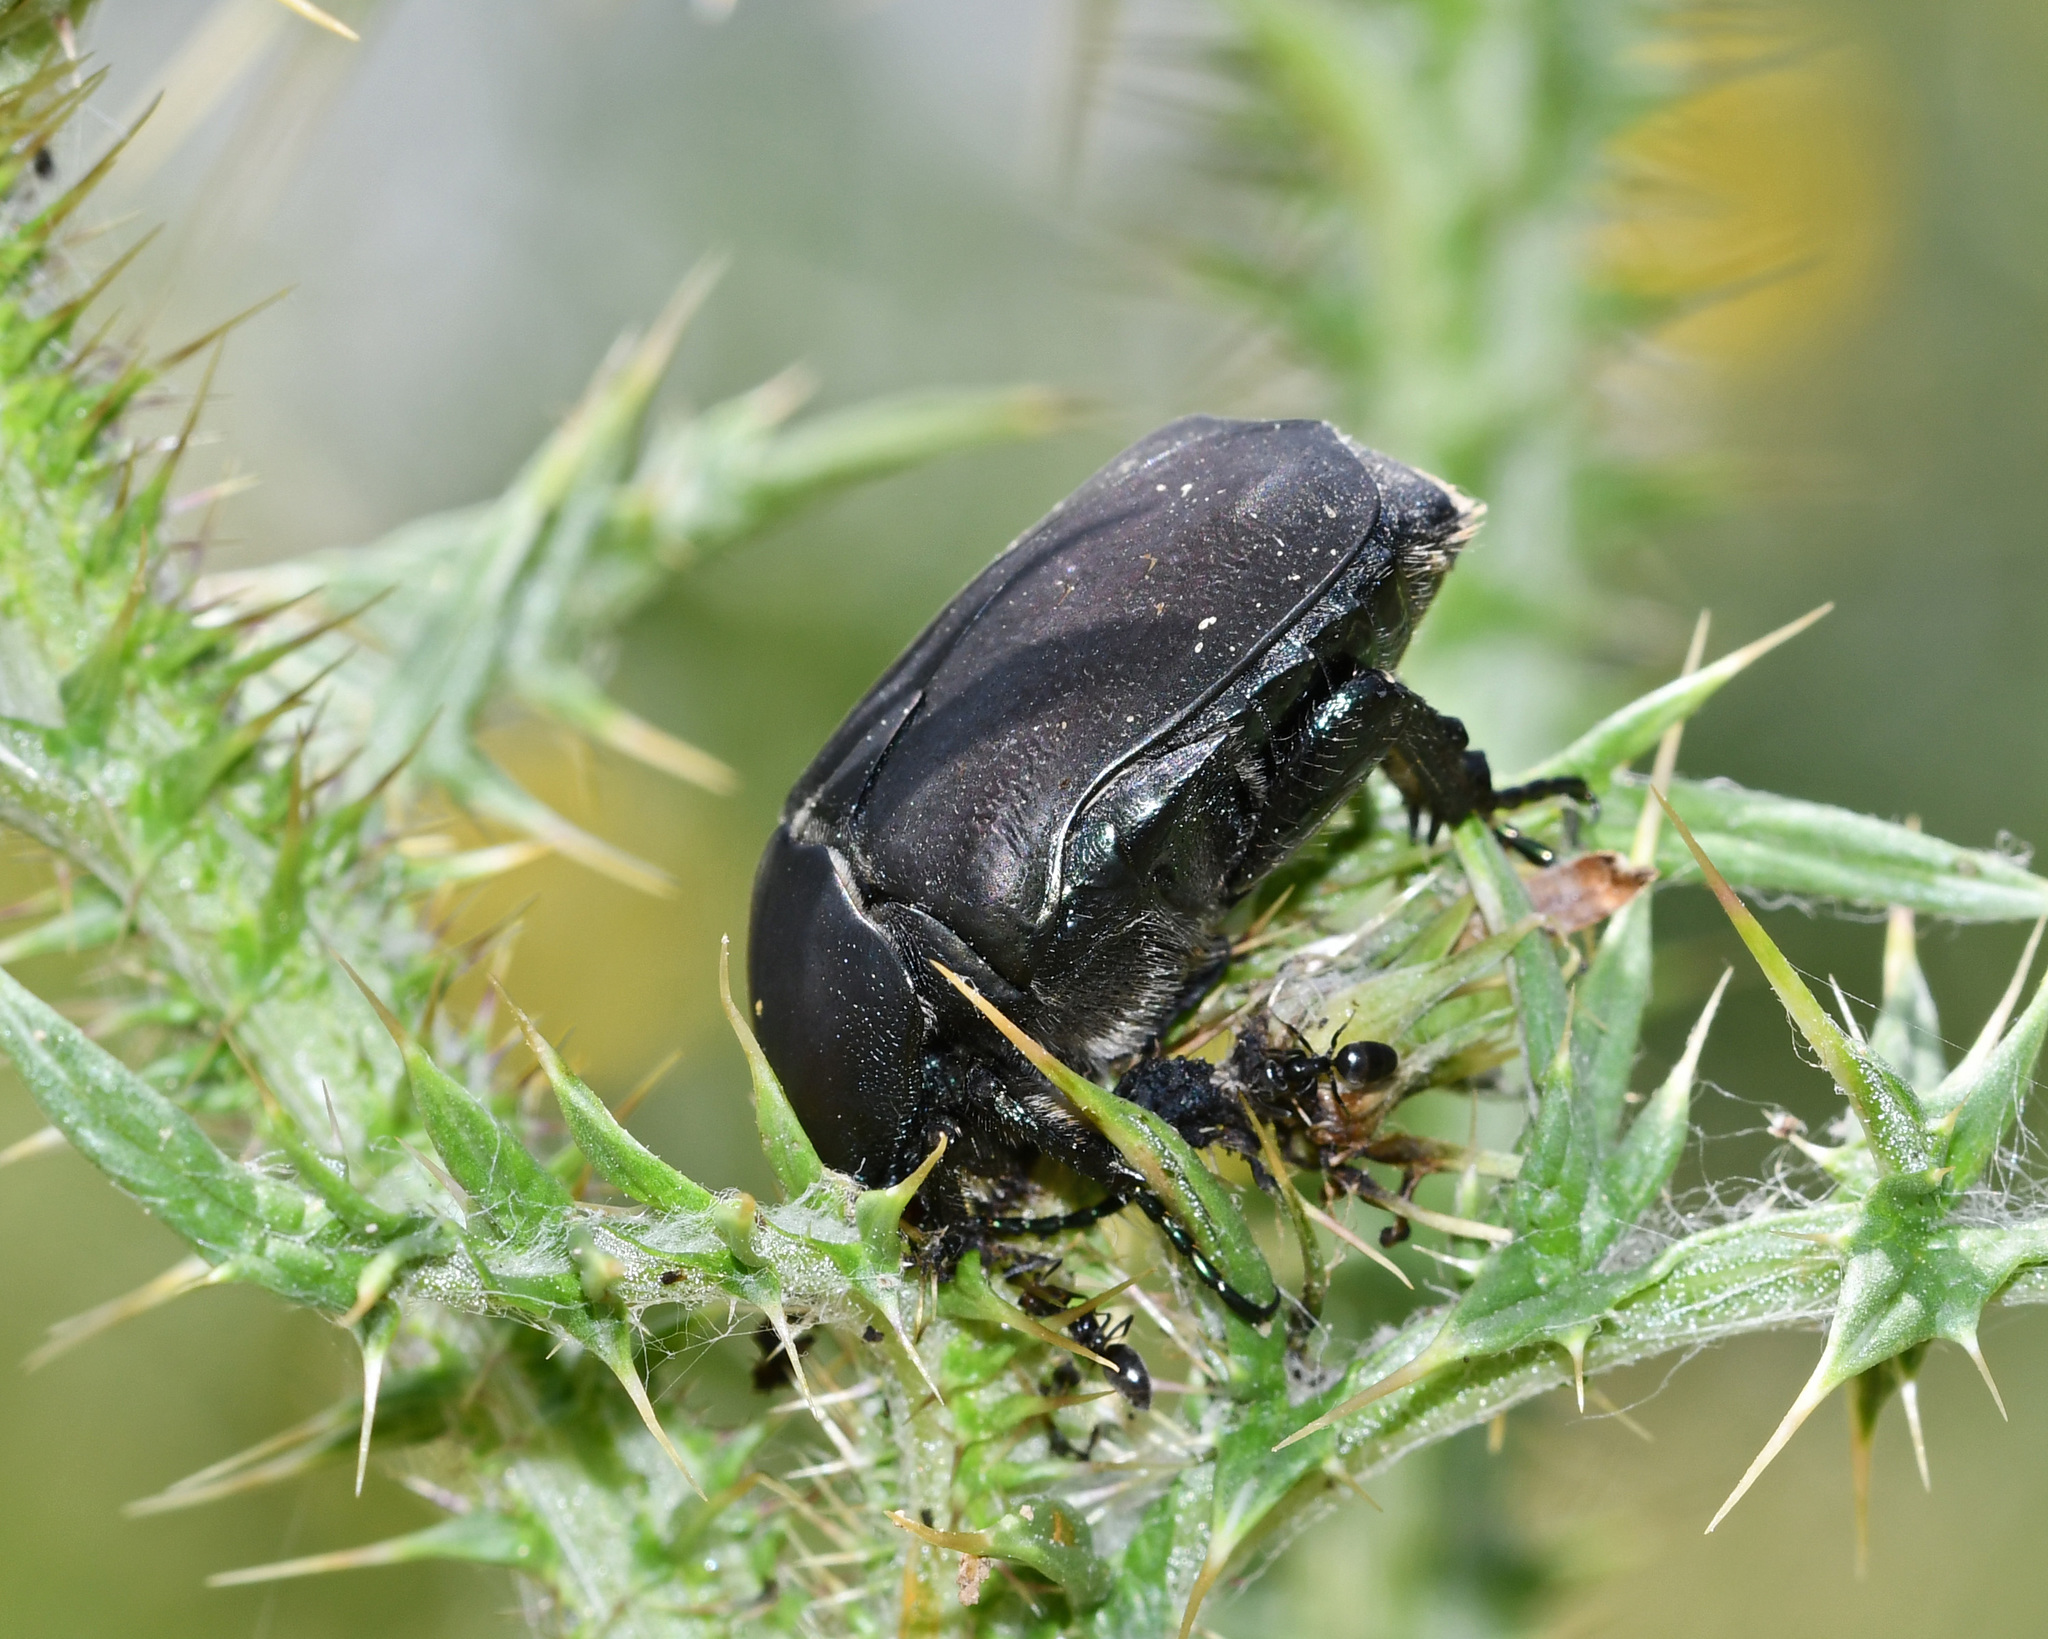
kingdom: Animalia
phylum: Arthropoda
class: Insecta
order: Coleoptera
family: Scarabaeidae
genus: Protaetia
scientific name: Protaetia afflicta
